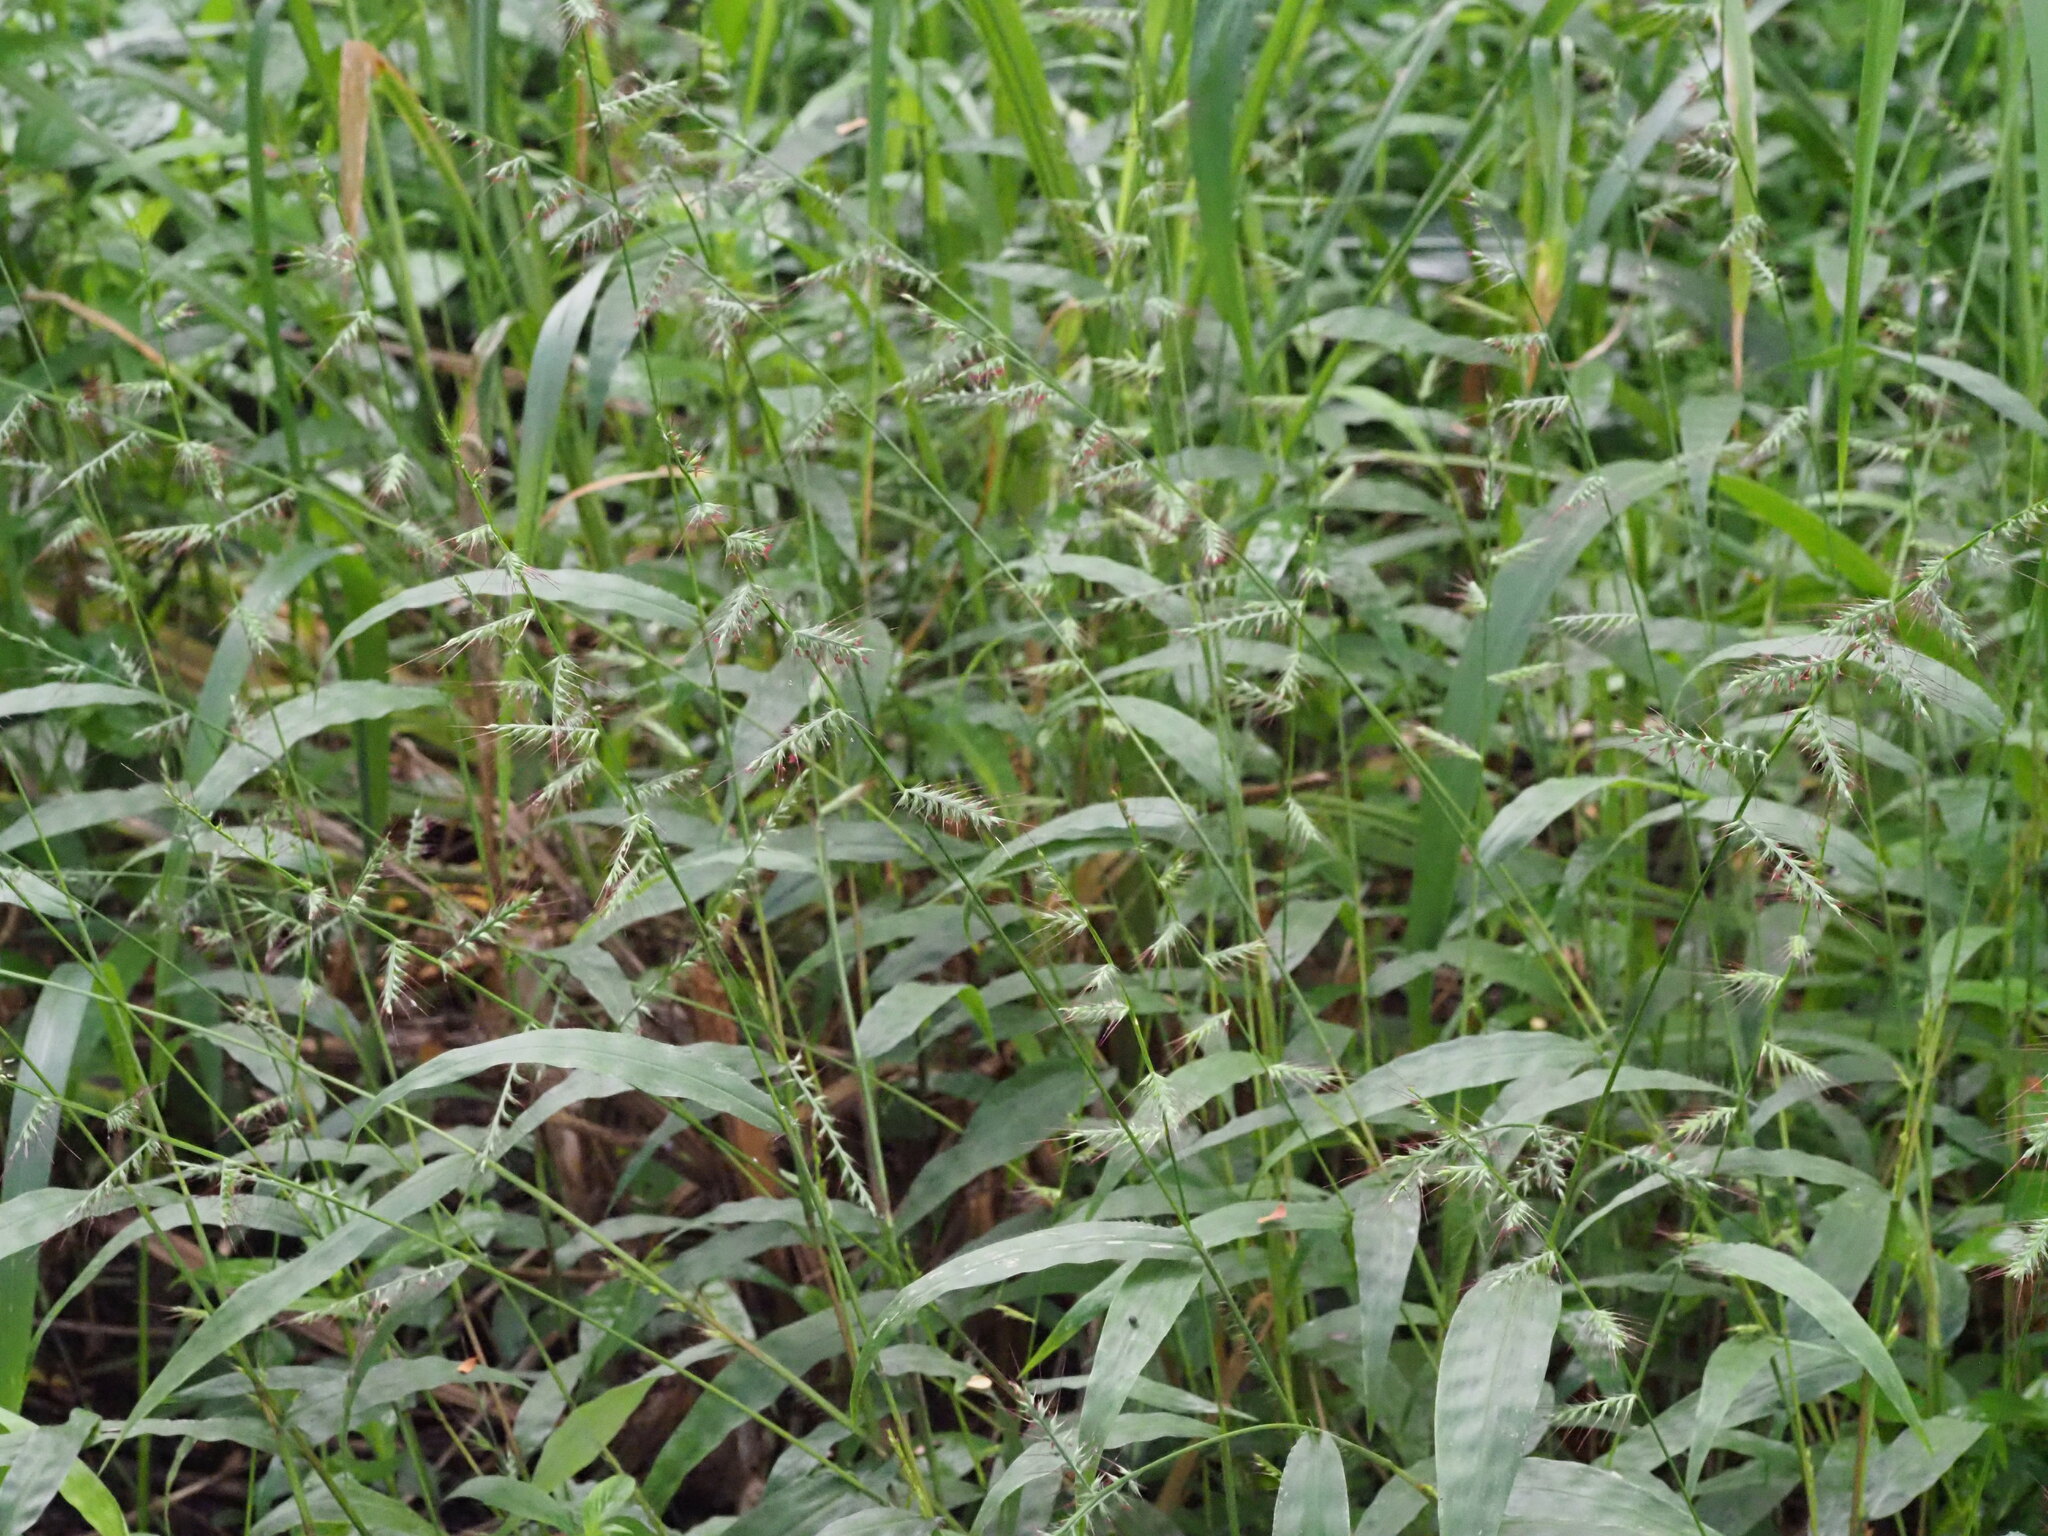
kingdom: Plantae
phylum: Tracheophyta
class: Liliopsida
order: Poales
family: Poaceae
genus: Oplismenus
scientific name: Oplismenus compositus
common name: Running mountain grass
